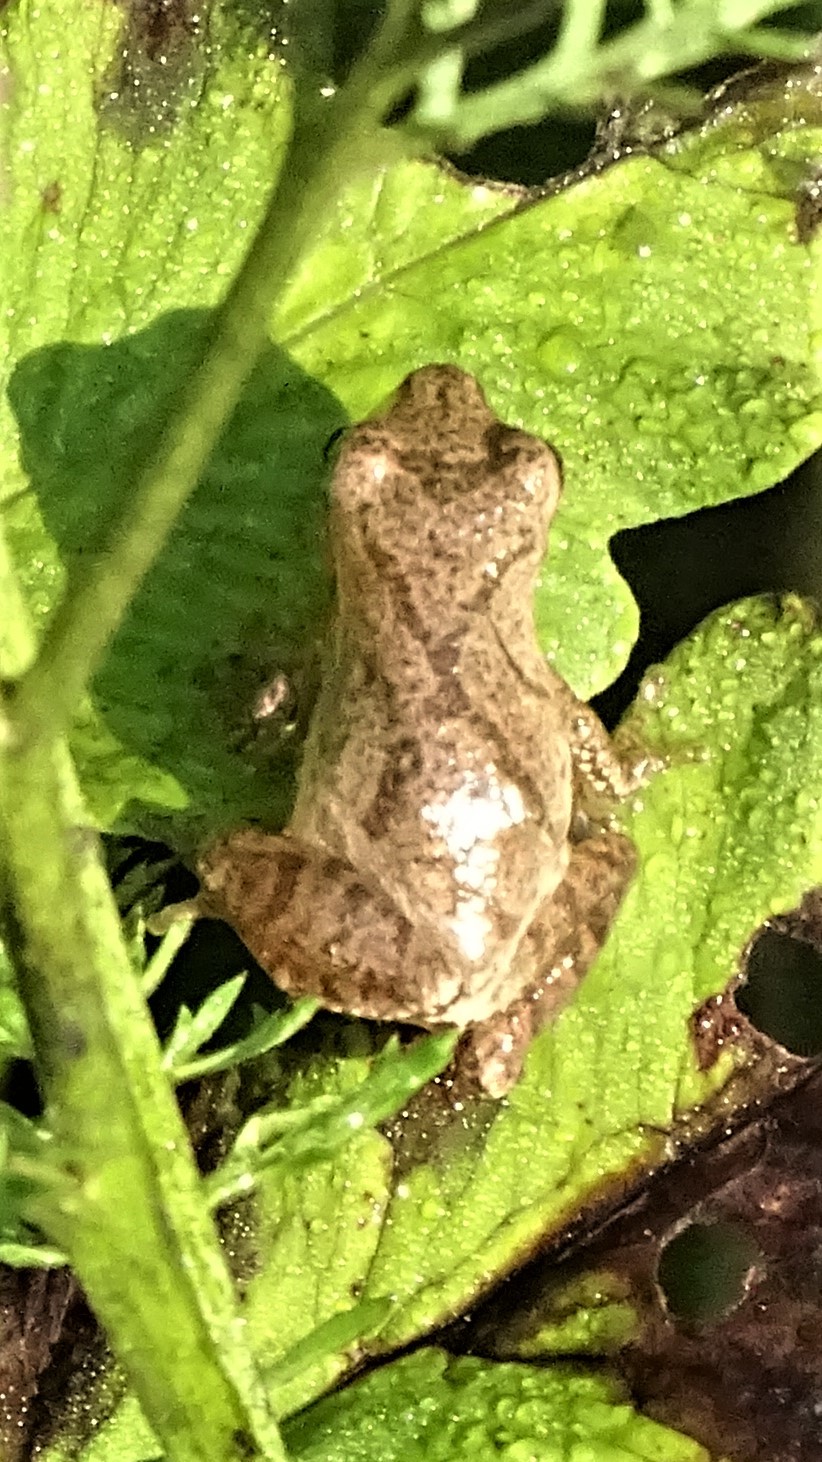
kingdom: Animalia
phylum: Chordata
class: Amphibia
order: Anura
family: Hylidae
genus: Pseudacris
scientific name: Pseudacris crucifer
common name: Spring peeper
